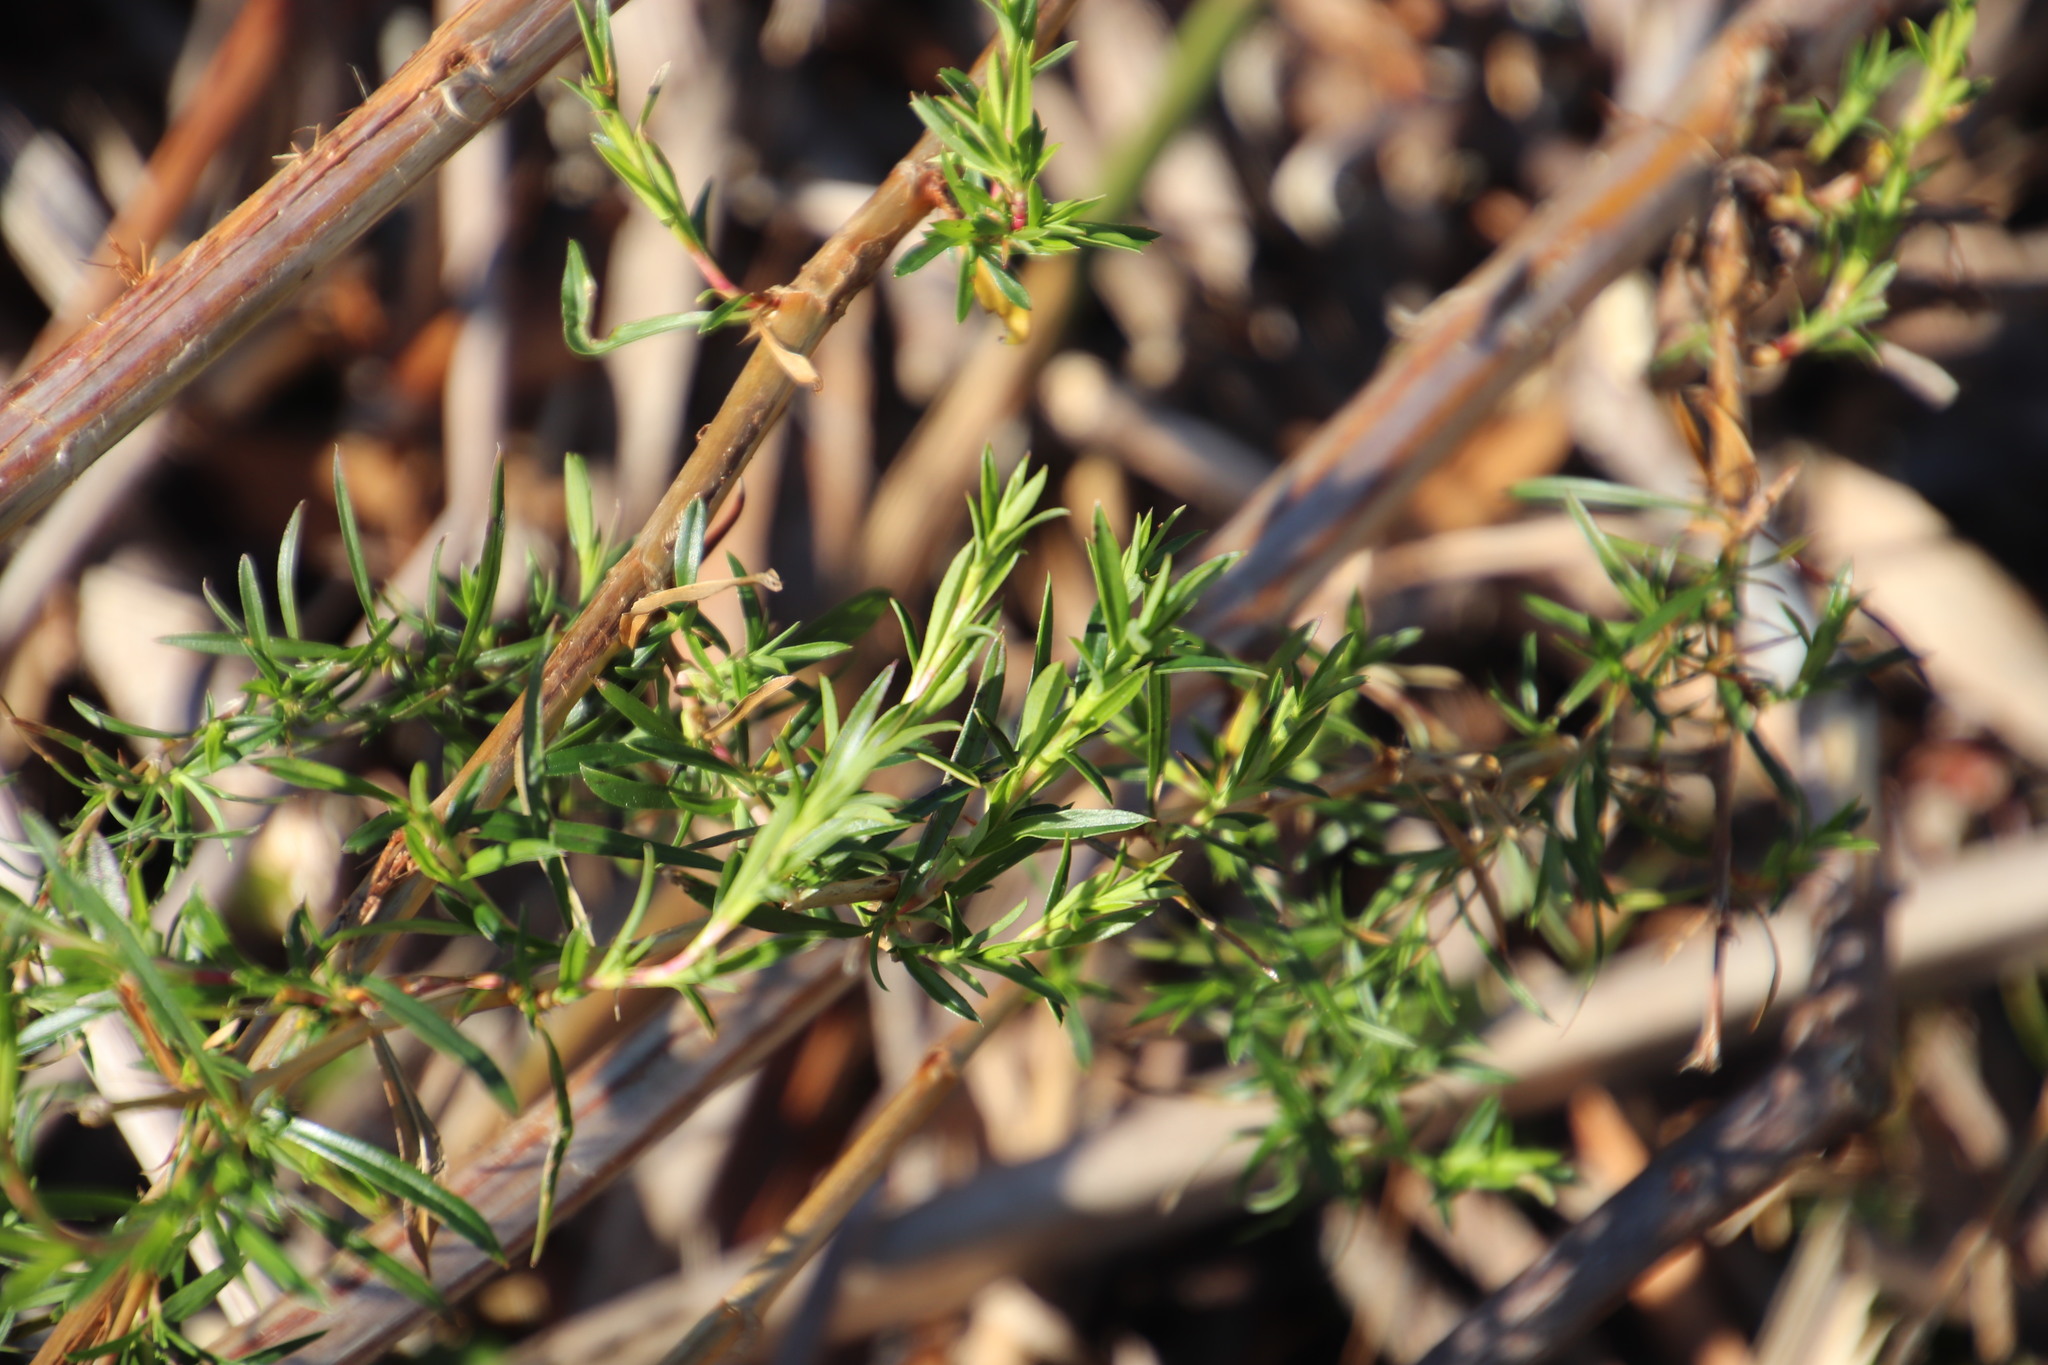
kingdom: Plantae
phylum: Tracheophyta
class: Magnoliopsida
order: Rosales
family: Rosaceae
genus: Cliffortia
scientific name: Cliffortia strobilifera
